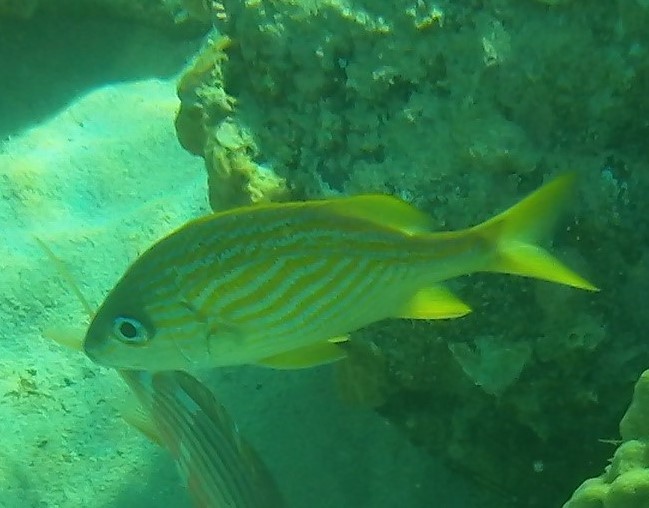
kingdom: Animalia
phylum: Chordata
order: Perciformes
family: Haemulidae
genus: Haemulon
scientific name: Haemulon flavolineatum
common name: French grunt
